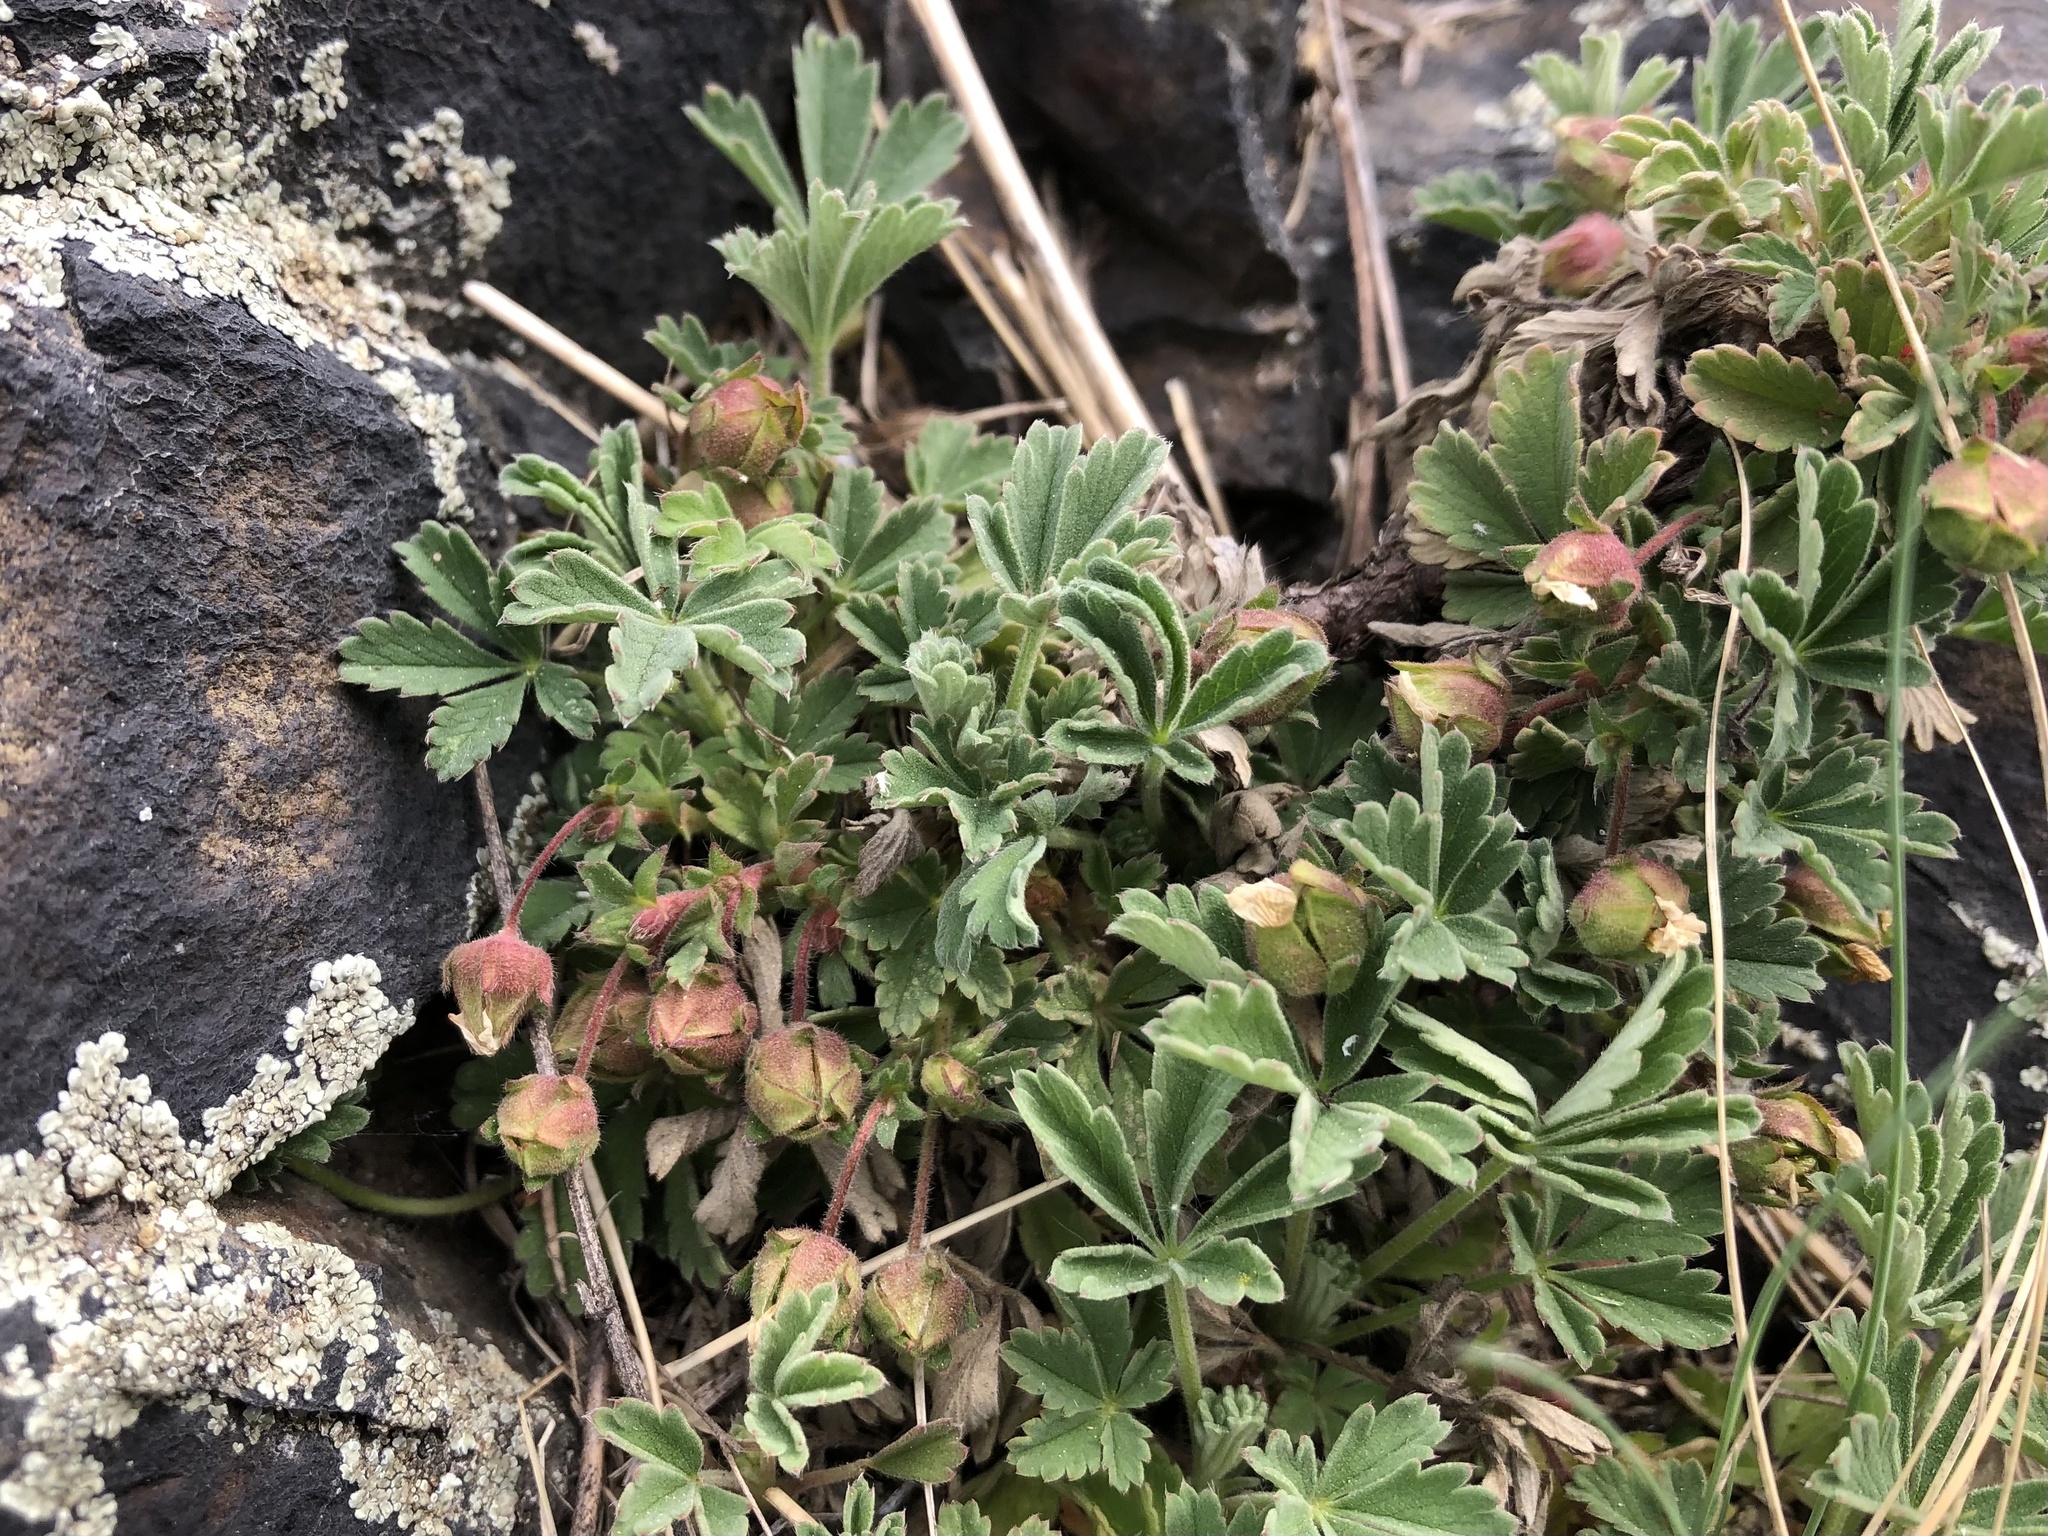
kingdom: Plantae
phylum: Tracheophyta
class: Magnoliopsida
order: Rosales
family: Rosaceae
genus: Potentilla
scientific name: Potentilla incana
